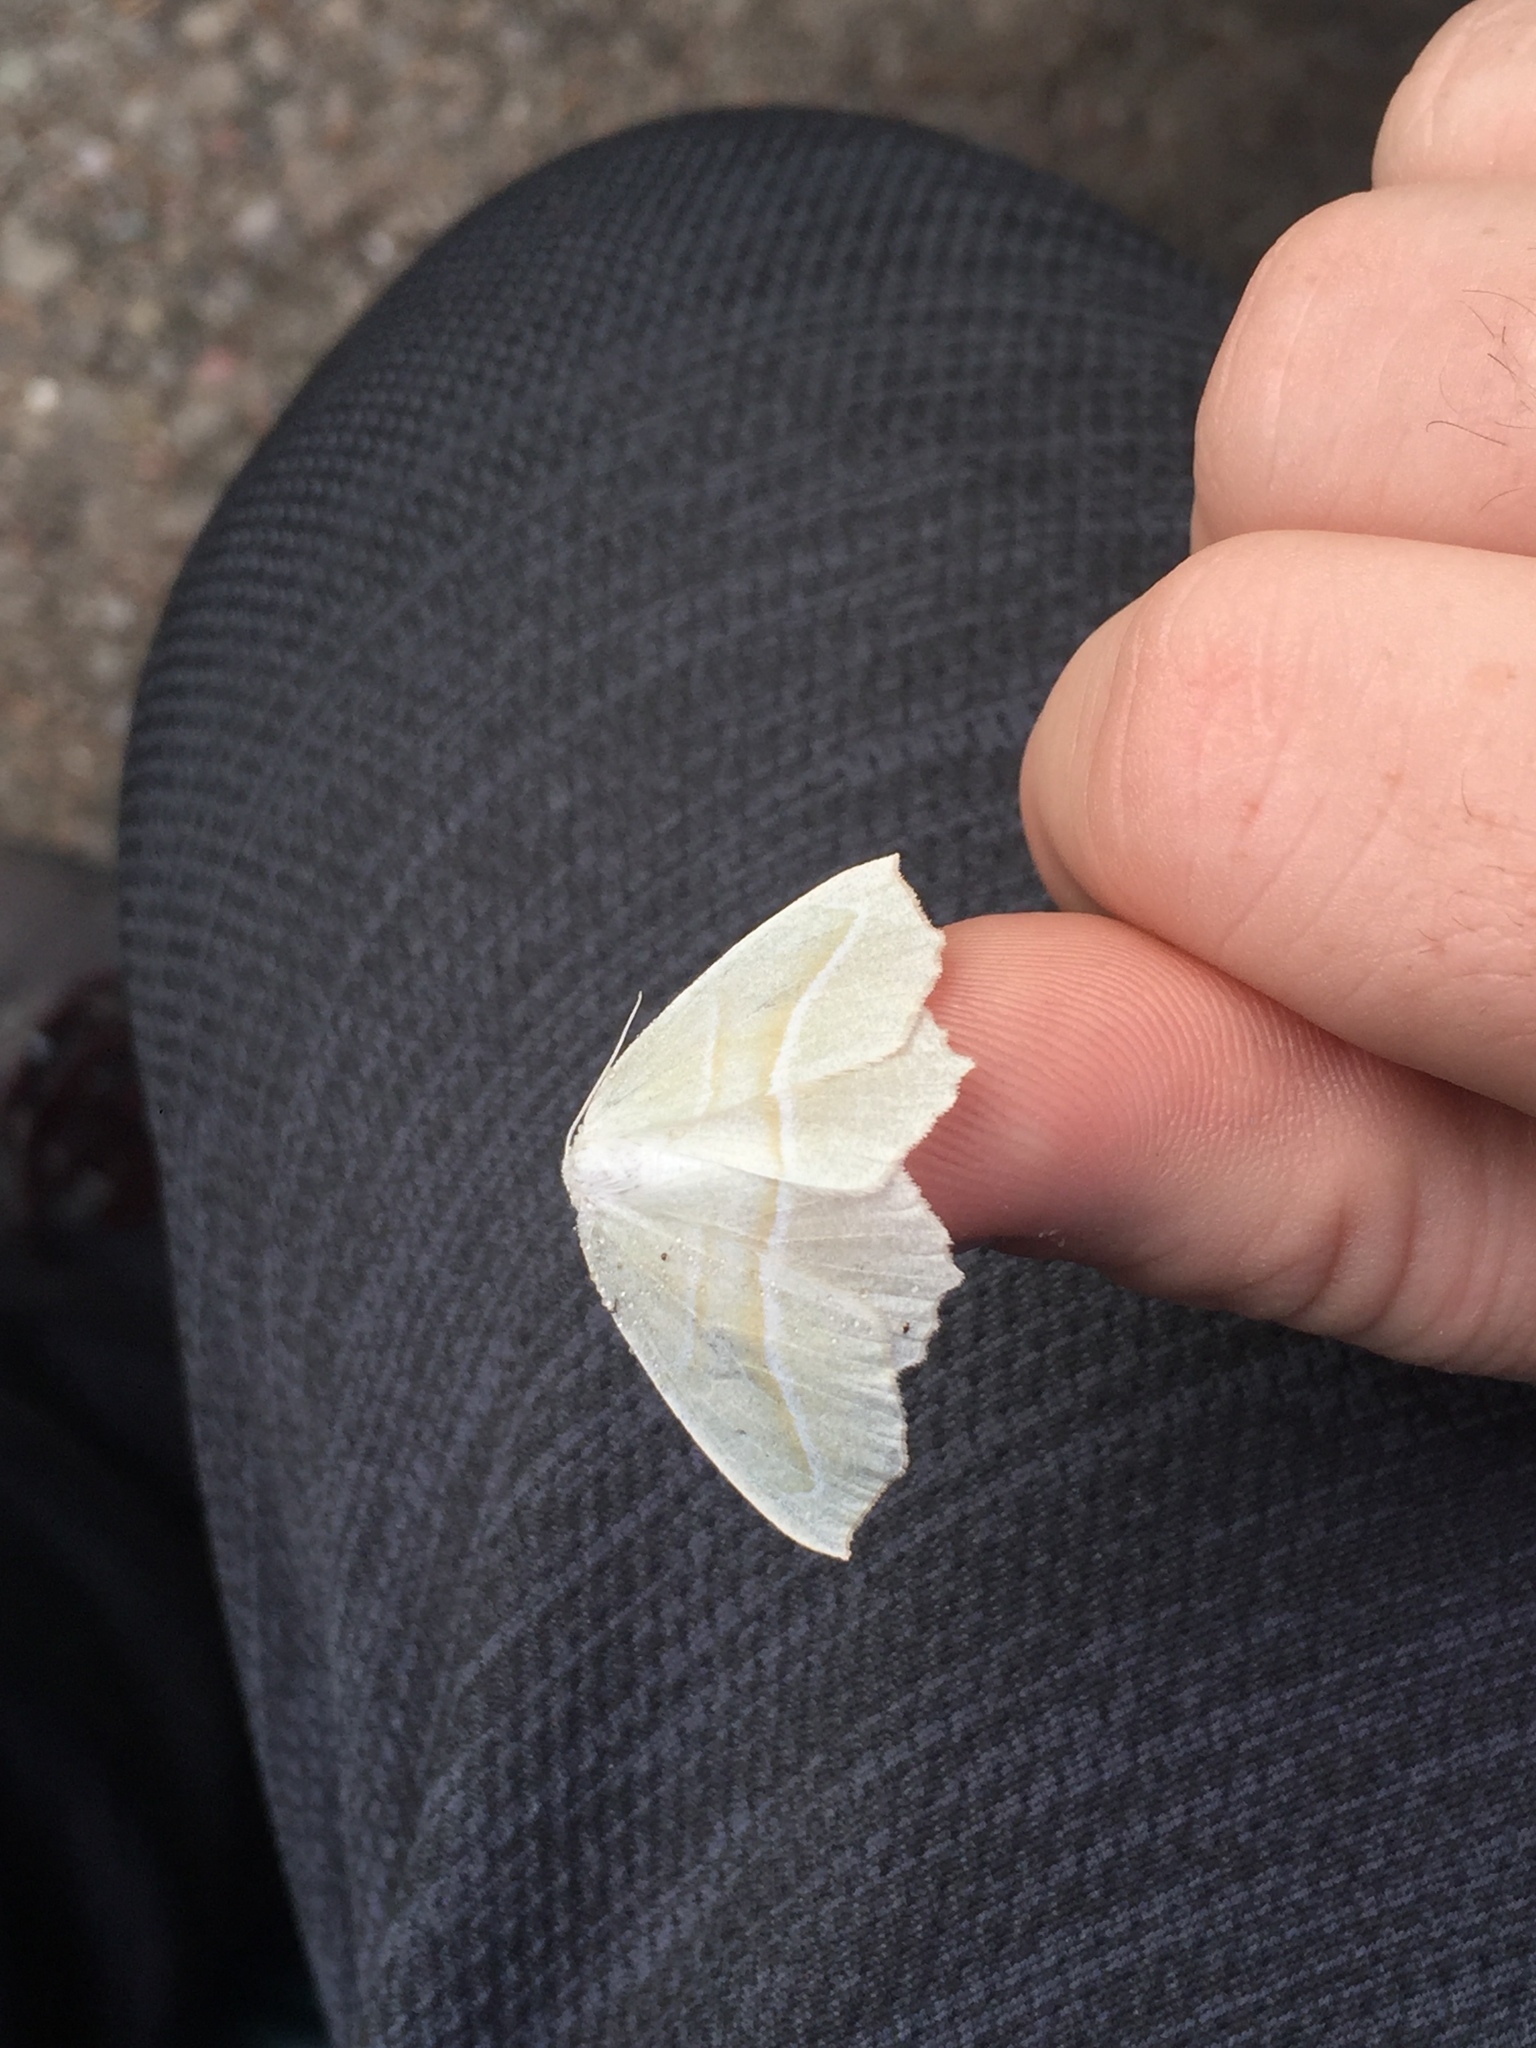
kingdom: Animalia
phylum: Arthropoda
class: Insecta
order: Lepidoptera
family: Geometridae
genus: Campaea
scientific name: Campaea perlata
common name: Fringed looper
